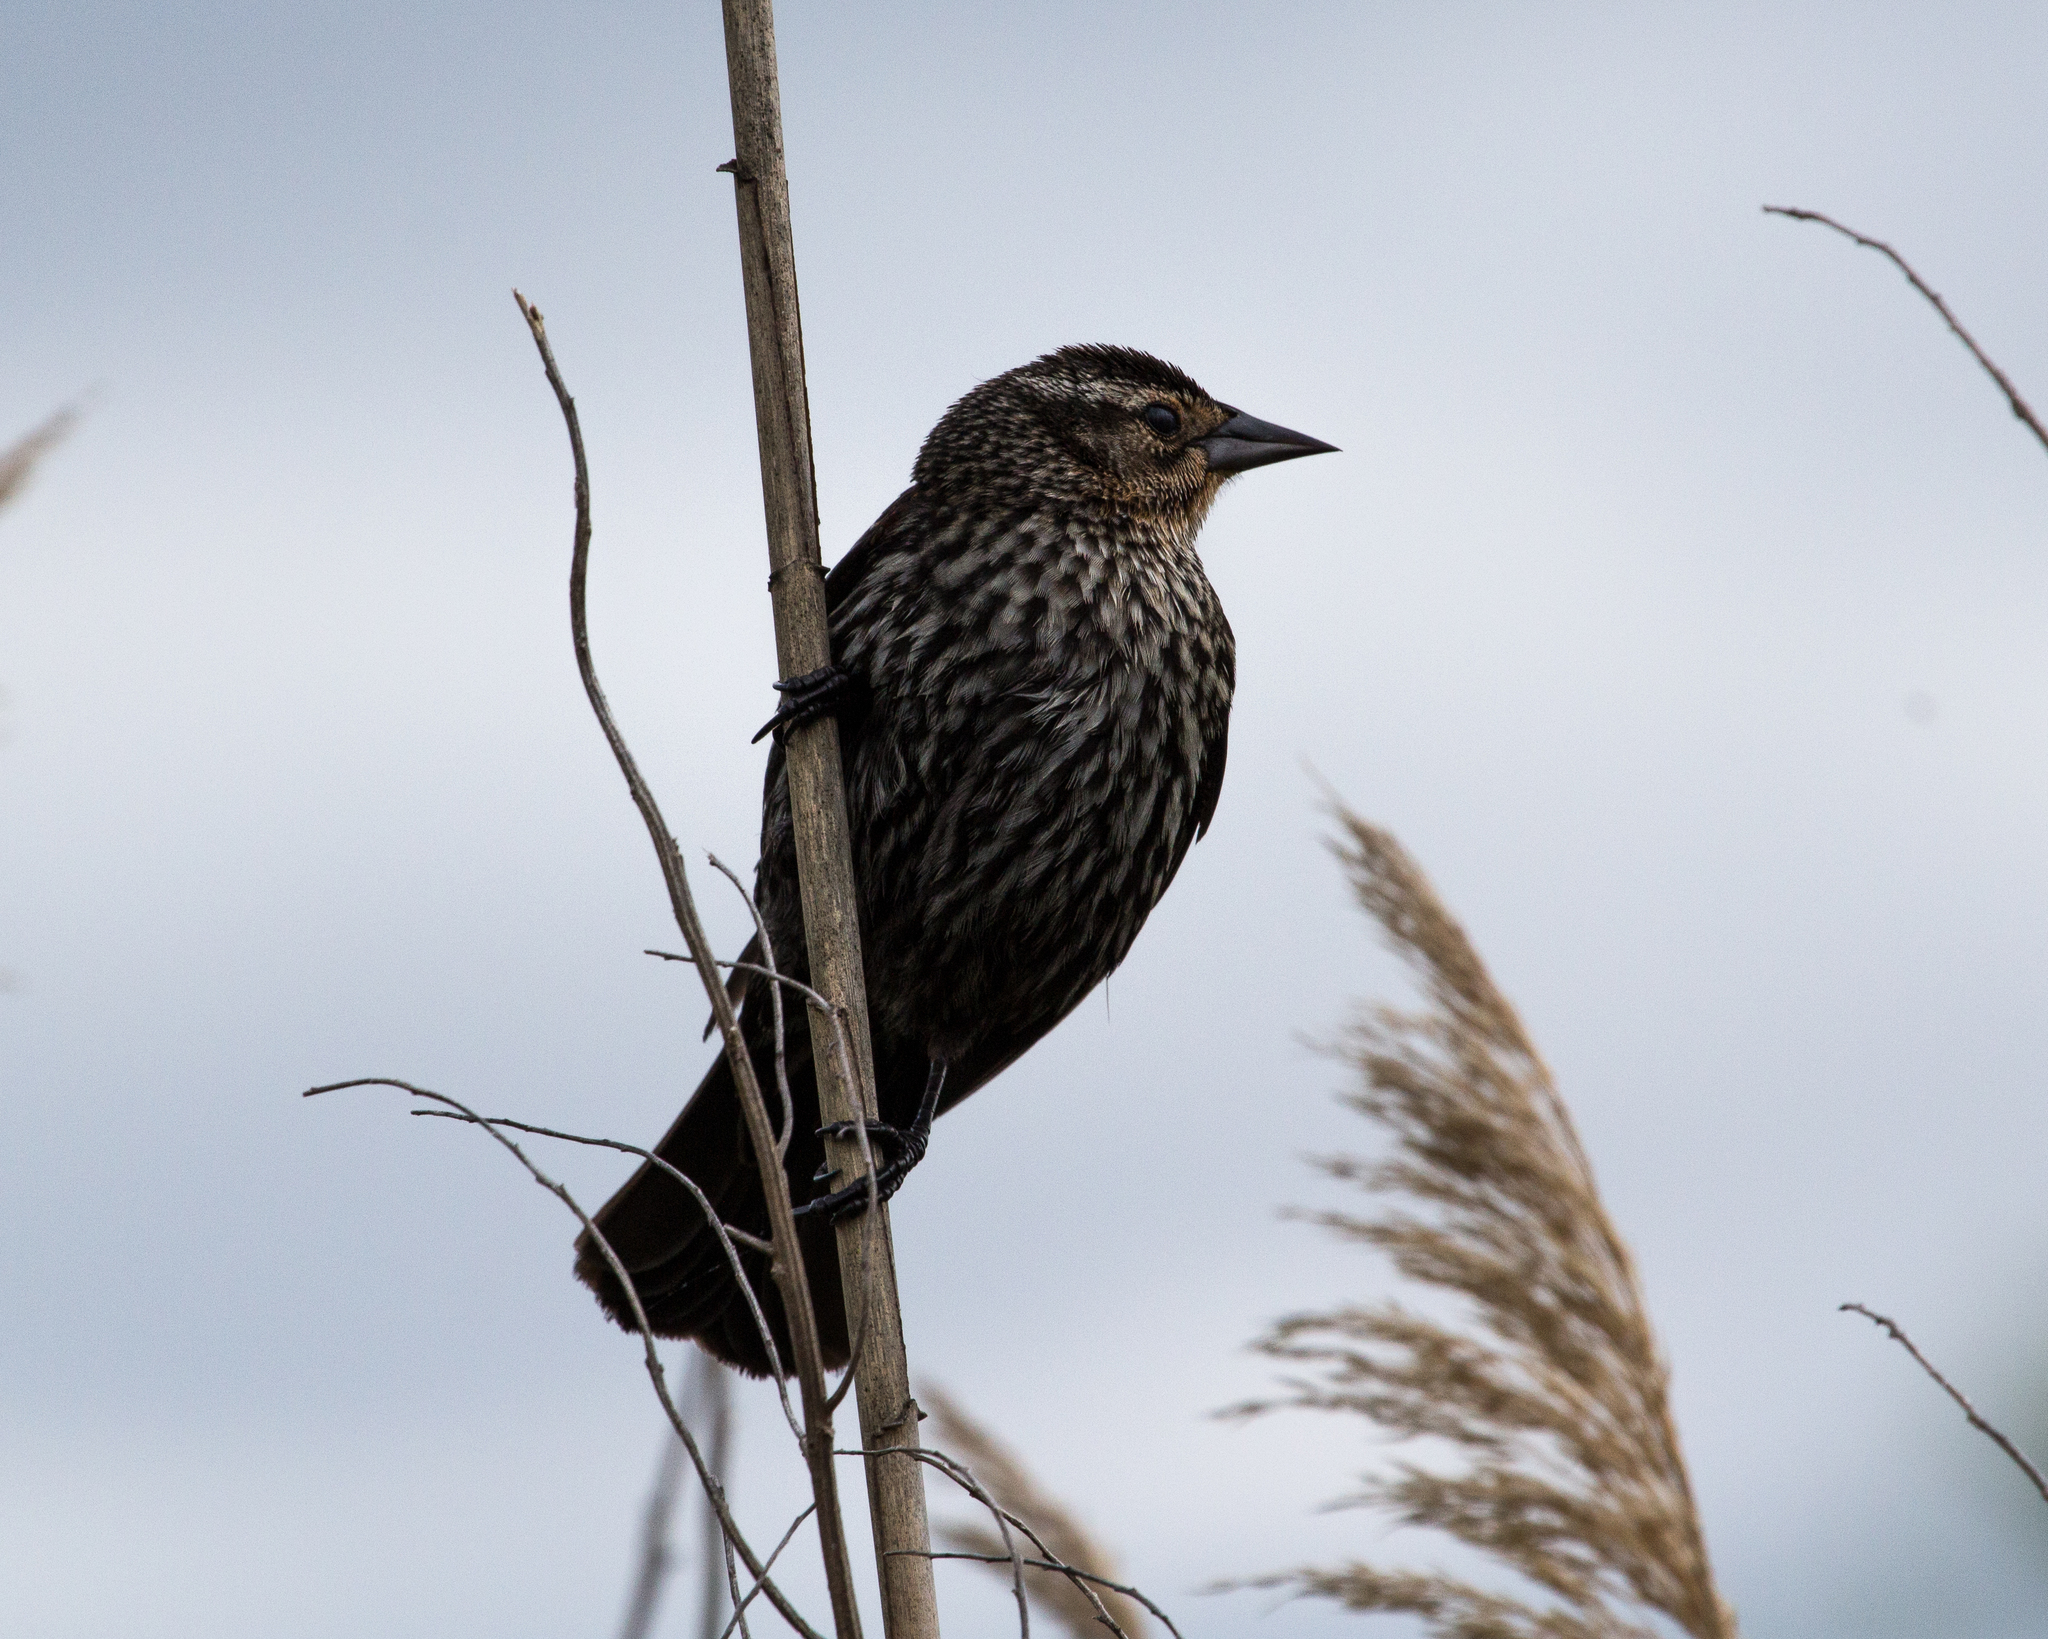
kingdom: Animalia
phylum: Chordata
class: Aves
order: Passeriformes
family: Icteridae
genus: Agelaius
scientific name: Agelaius phoeniceus
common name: Red-winged blackbird
